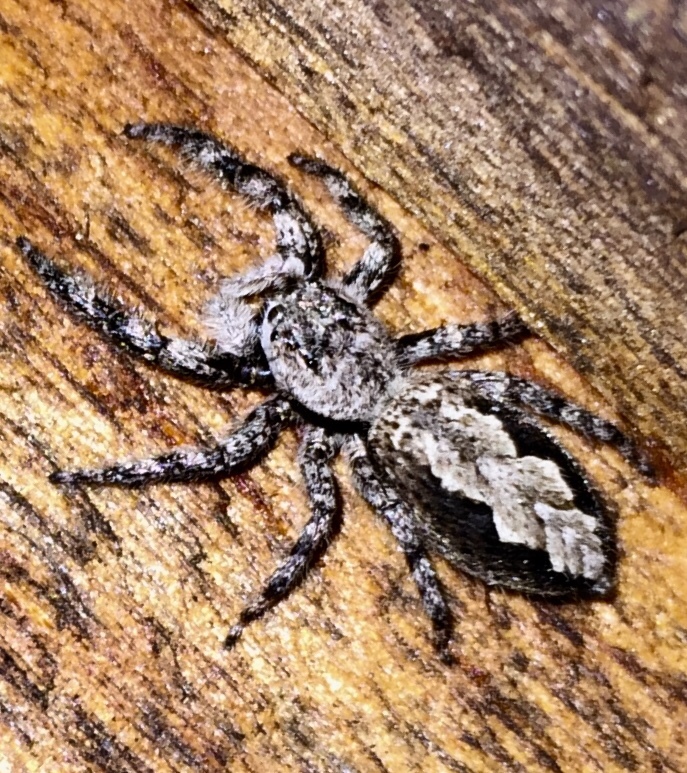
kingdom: Animalia
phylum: Arthropoda
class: Arachnida
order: Araneae
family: Salticidae
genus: Platycryptus
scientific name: Platycryptus undatus
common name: Tan jumping spider
